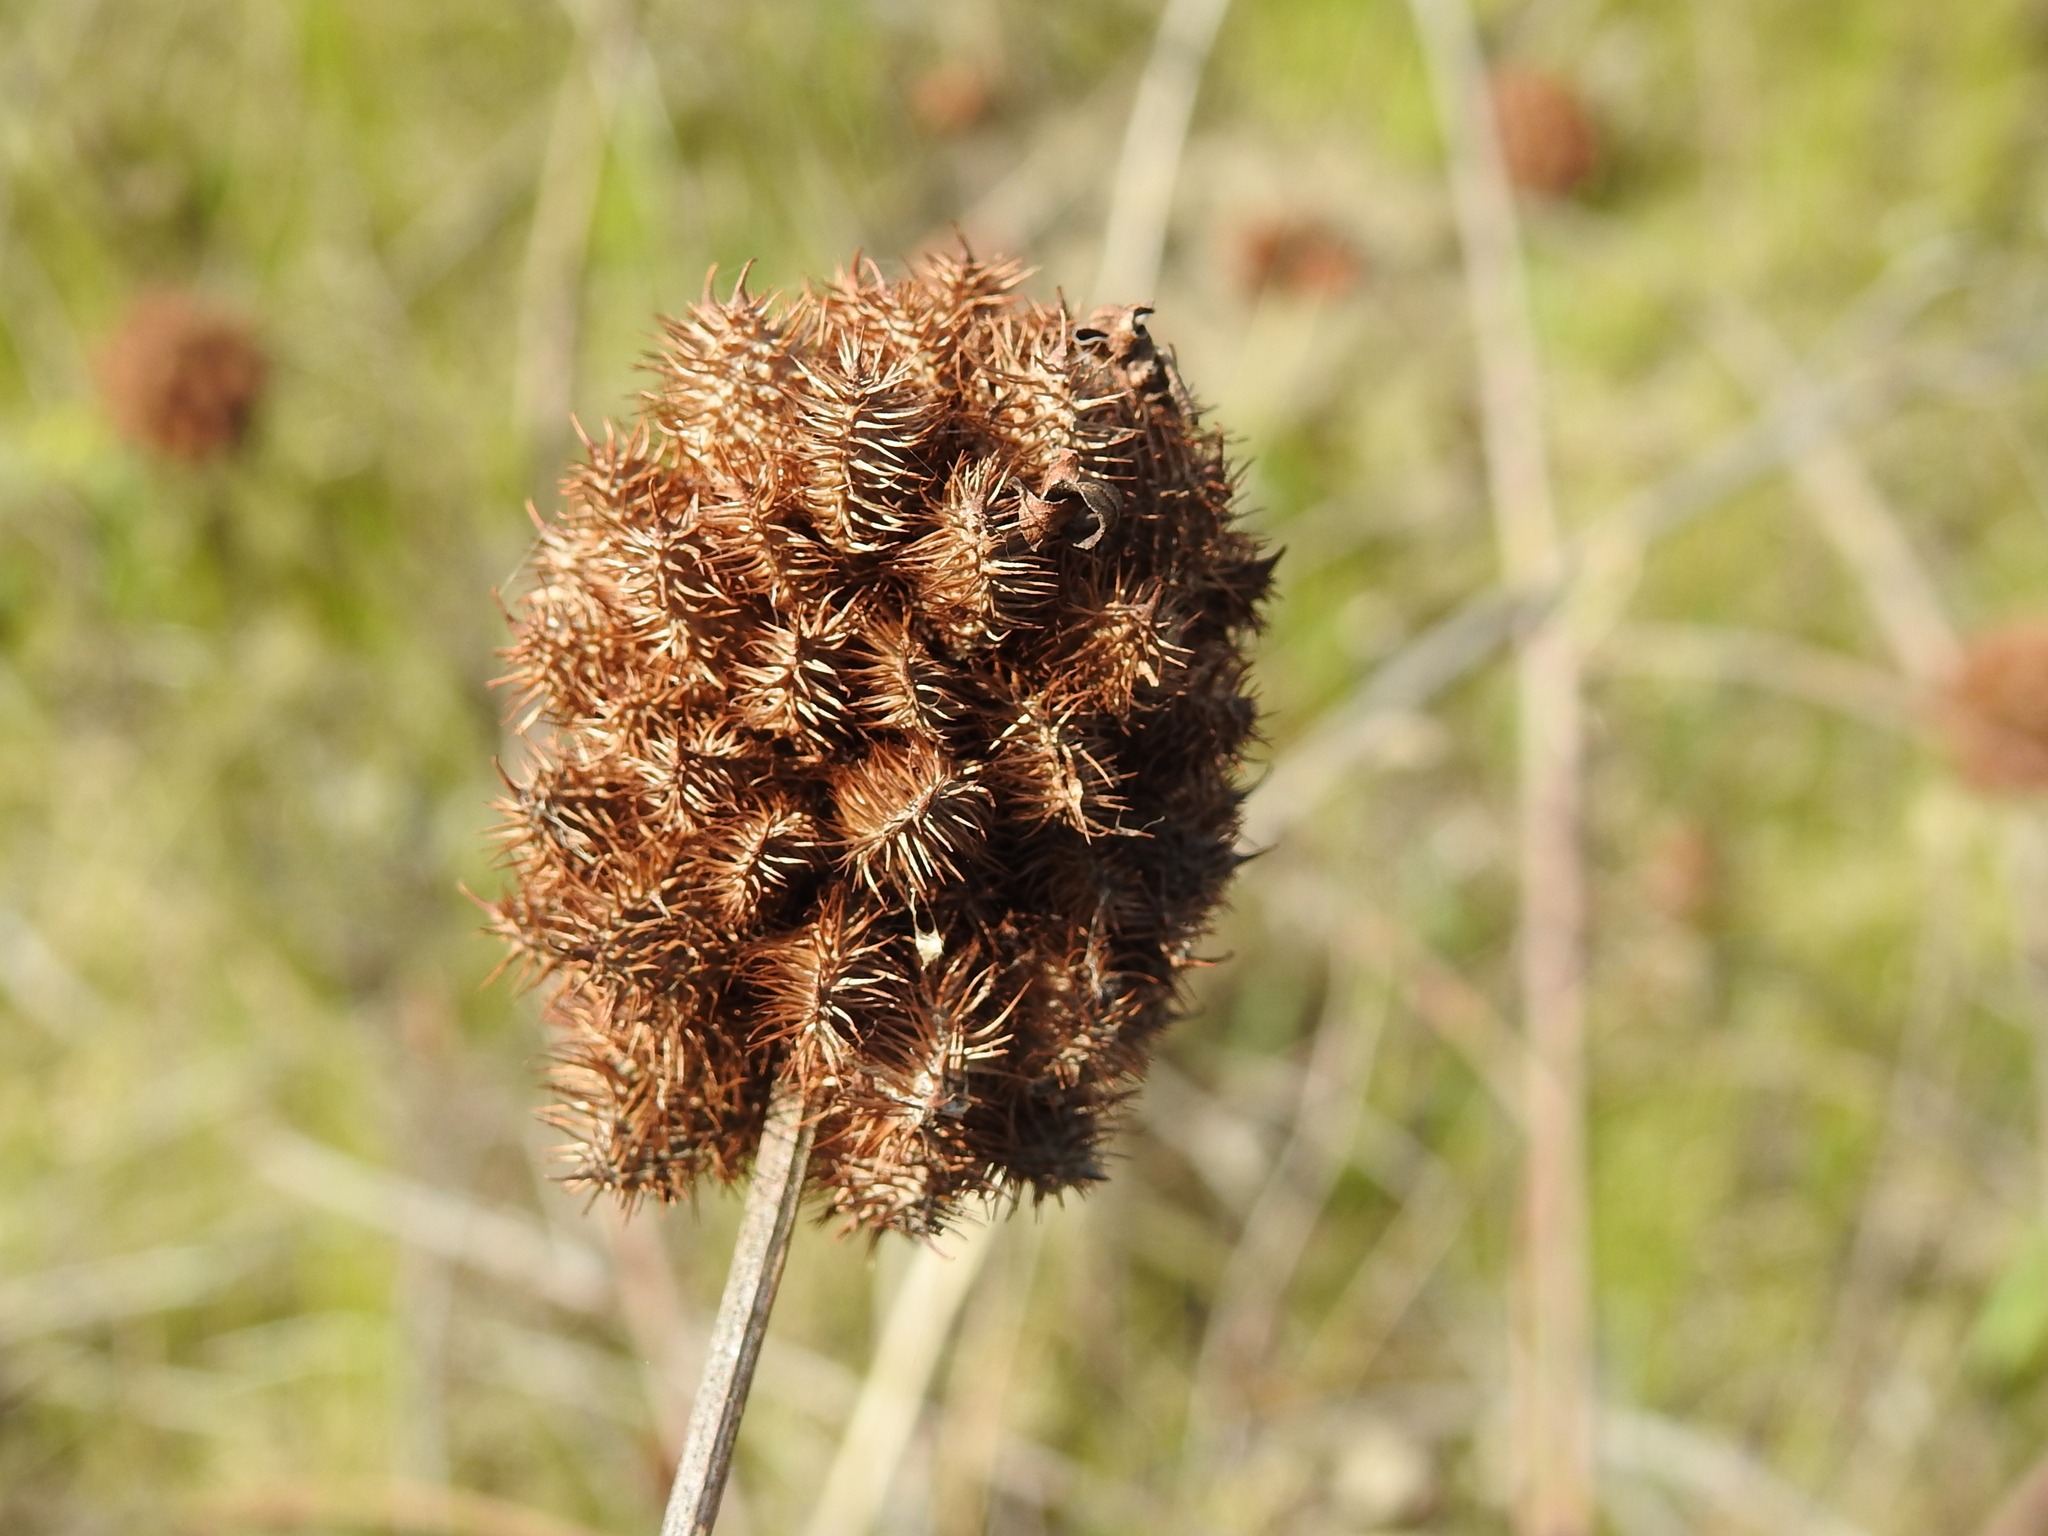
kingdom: Plantae
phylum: Tracheophyta
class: Magnoliopsida
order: Fabales
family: Fabaceae
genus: Glycyrrhiza
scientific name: Glycyrrhiza echinata
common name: German liquorice
